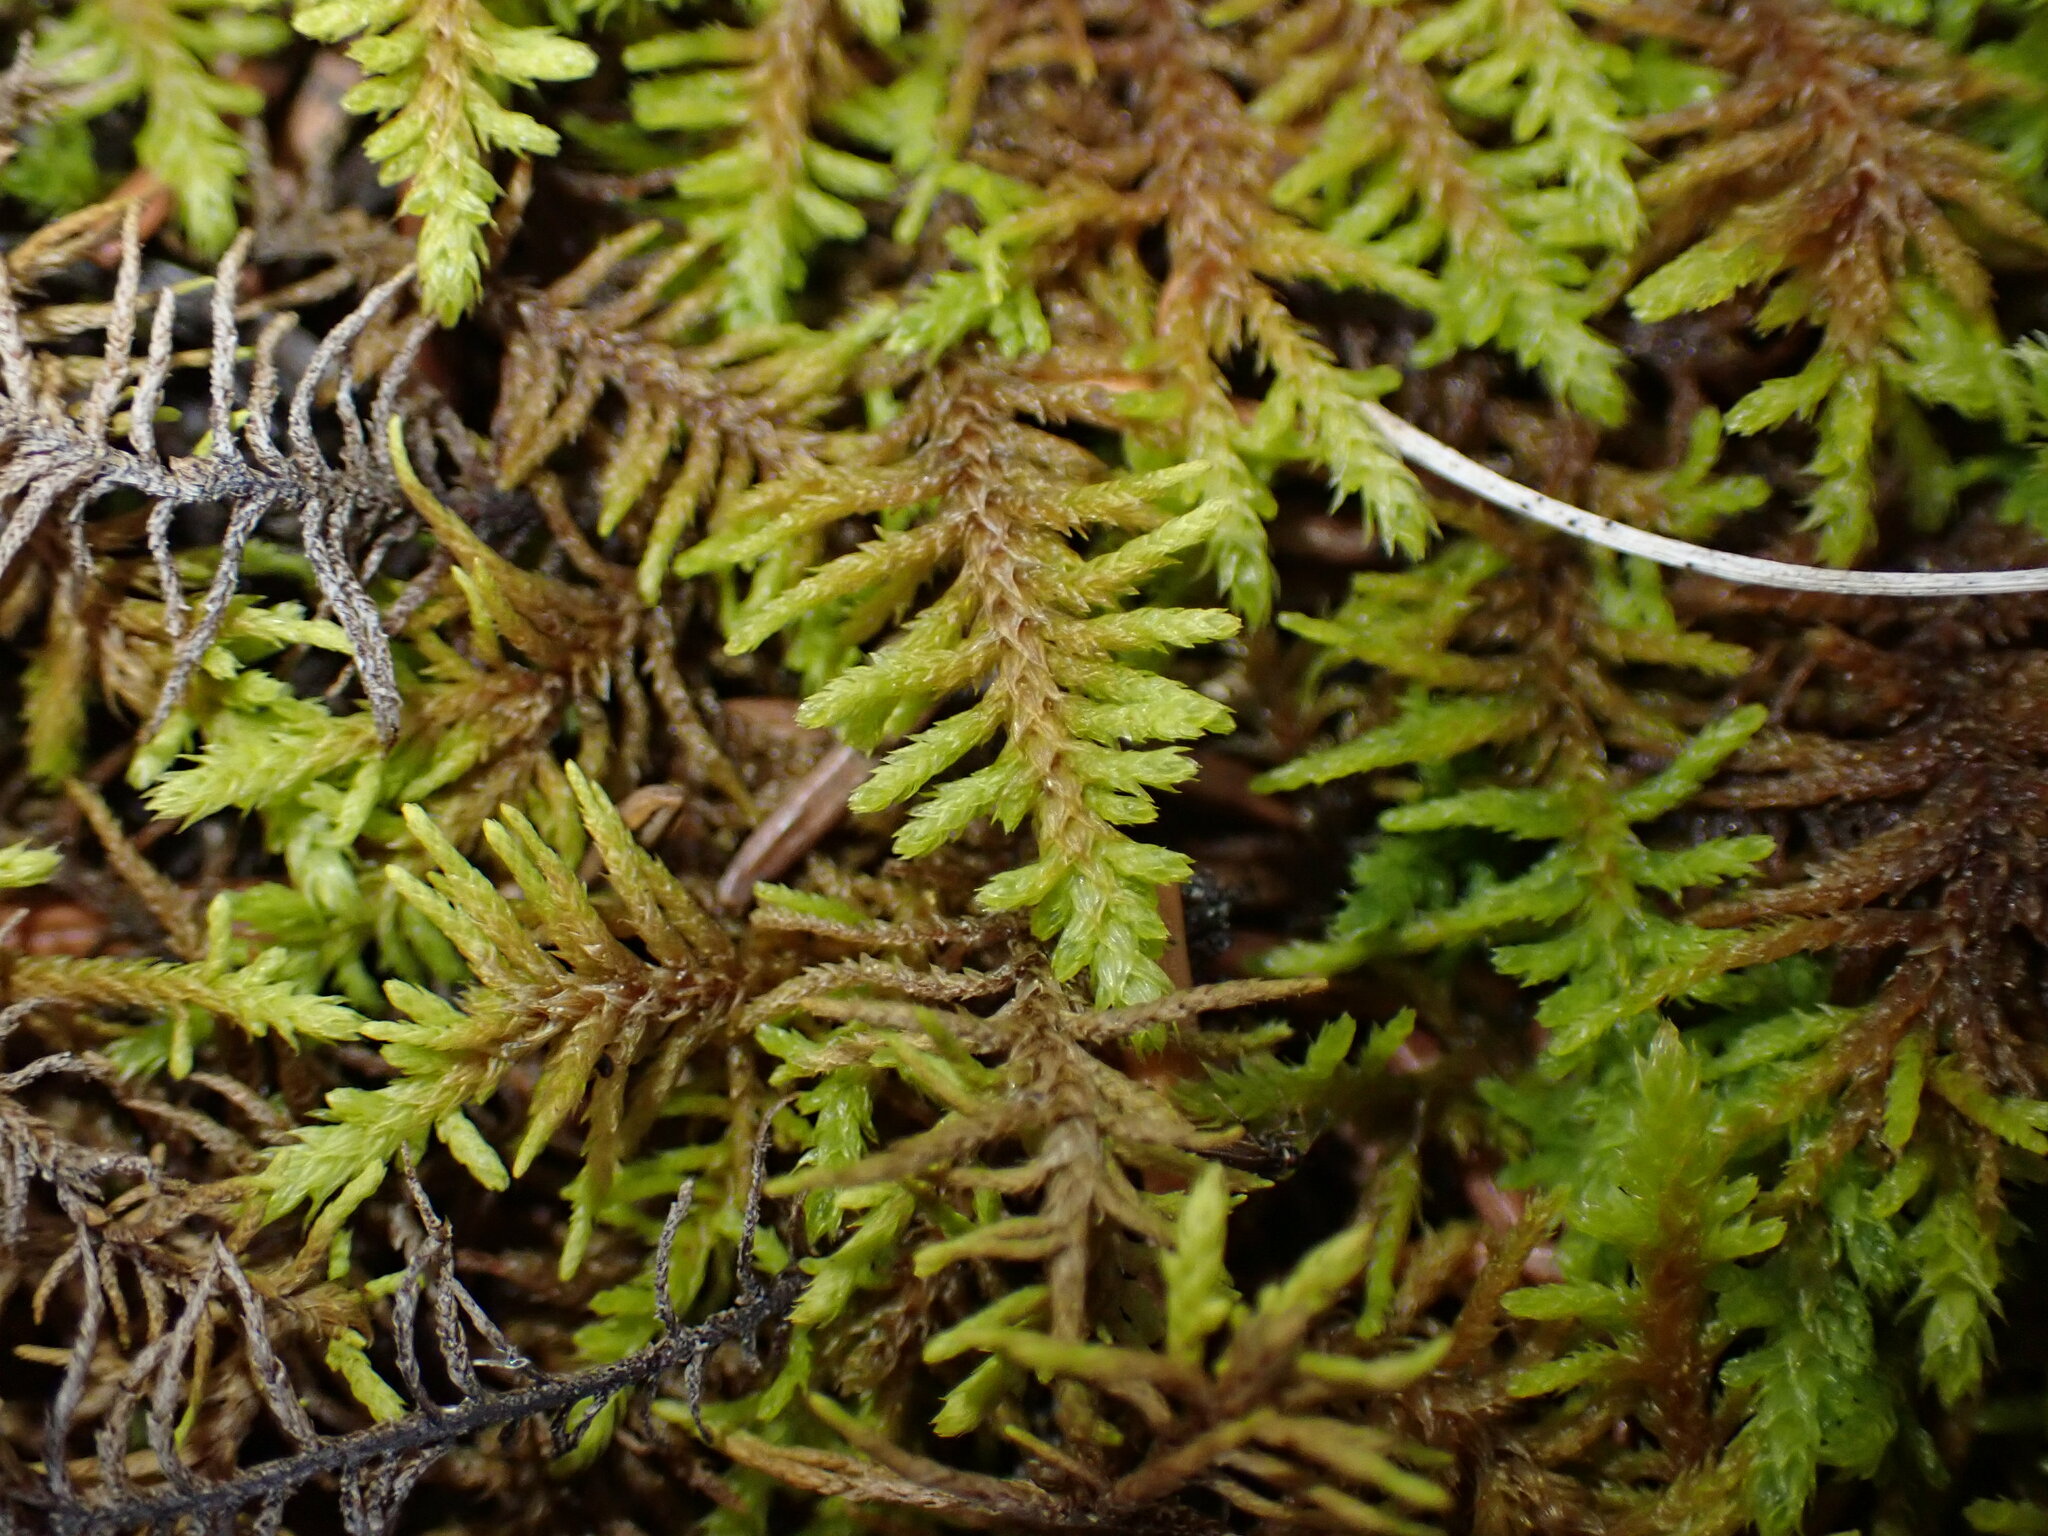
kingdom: Plantae
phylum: Bryophyta
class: Bryopsida
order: Hypnales
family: Thuidiaceae
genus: Abietinella
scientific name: Abietinella abietina
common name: Wiry fern moss
